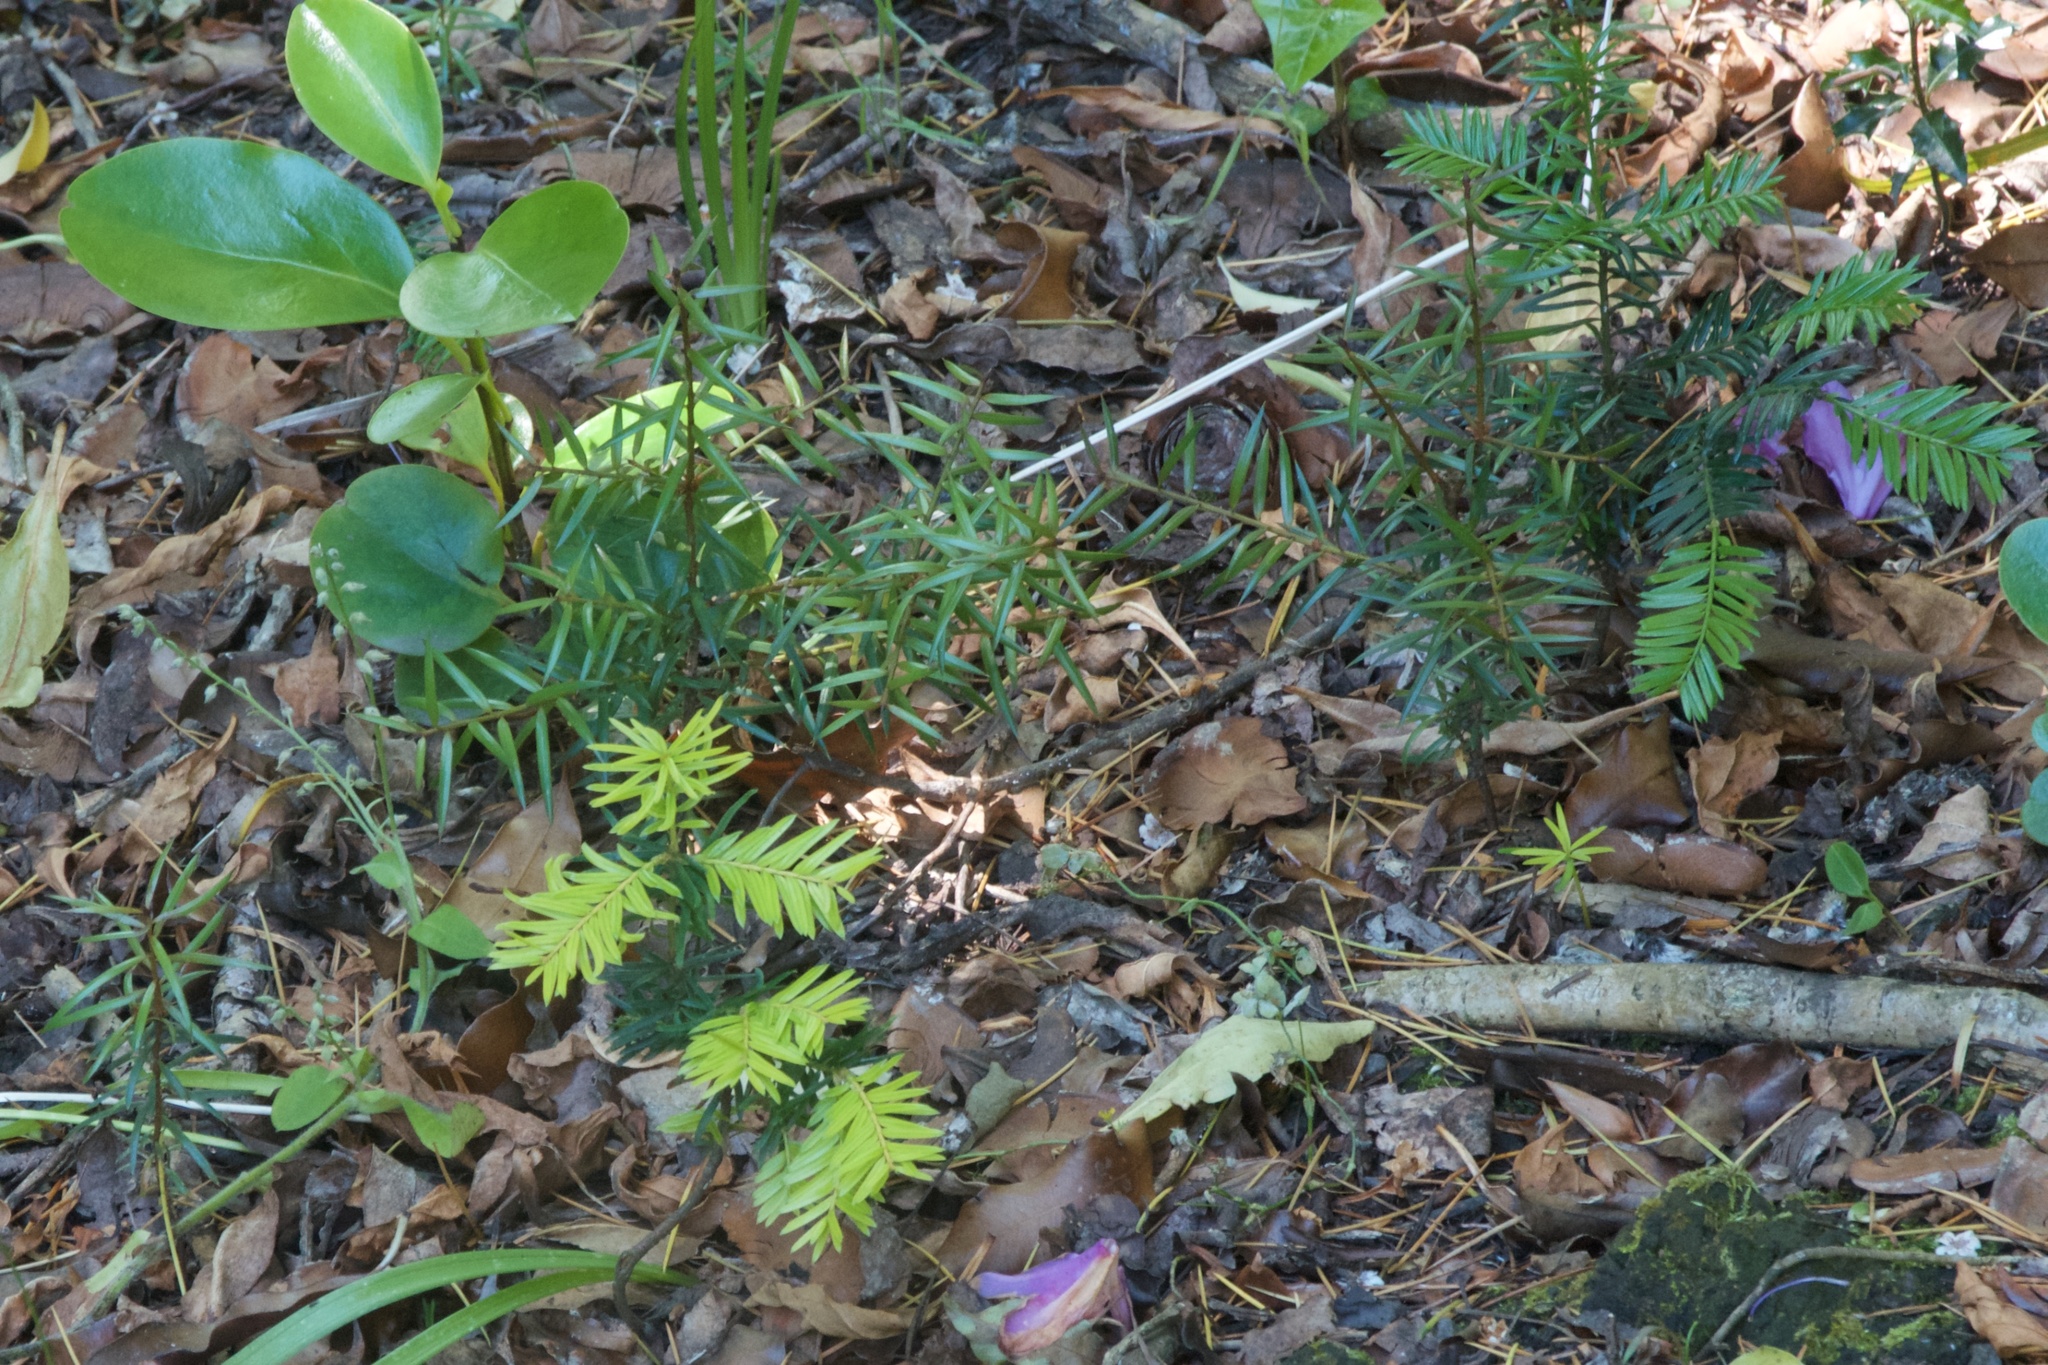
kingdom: Plantae
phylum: Tracheophyta
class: Pinopsida
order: Pinales
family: Podocarpaceae
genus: Podocarpus
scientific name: Podocarpus totara
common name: Totara
